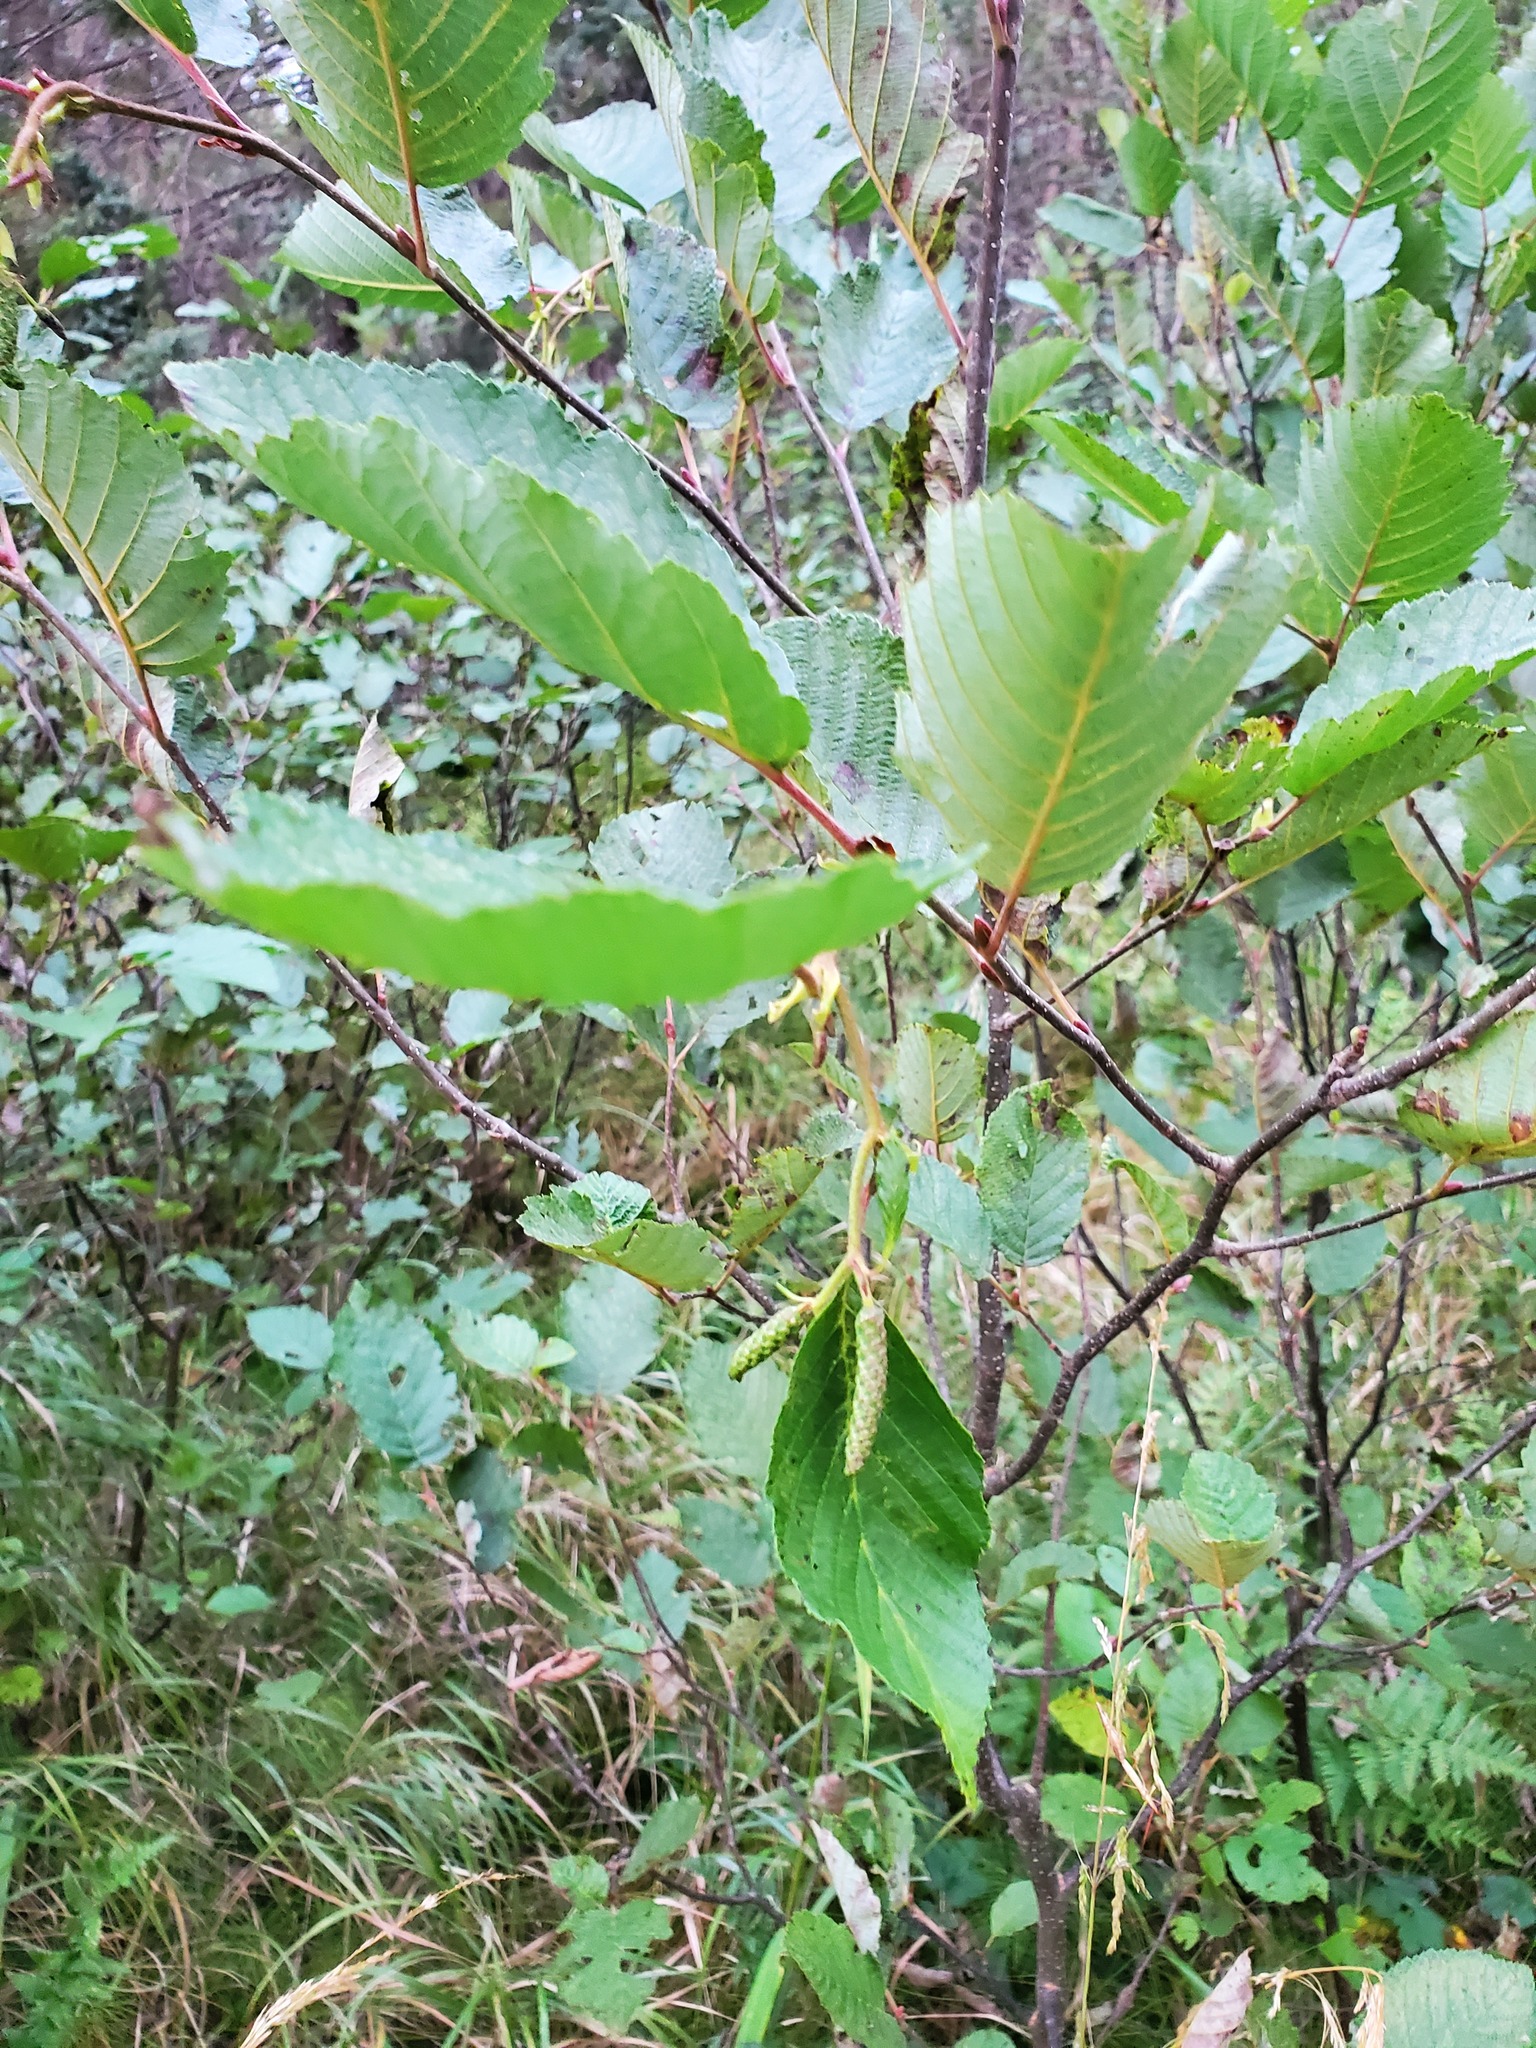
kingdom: Plantae
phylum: Tracheophyta
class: Magnoliopsida
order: Fagales
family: Betulaceae
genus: Alnus
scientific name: Alnus incana
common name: Grey alder
